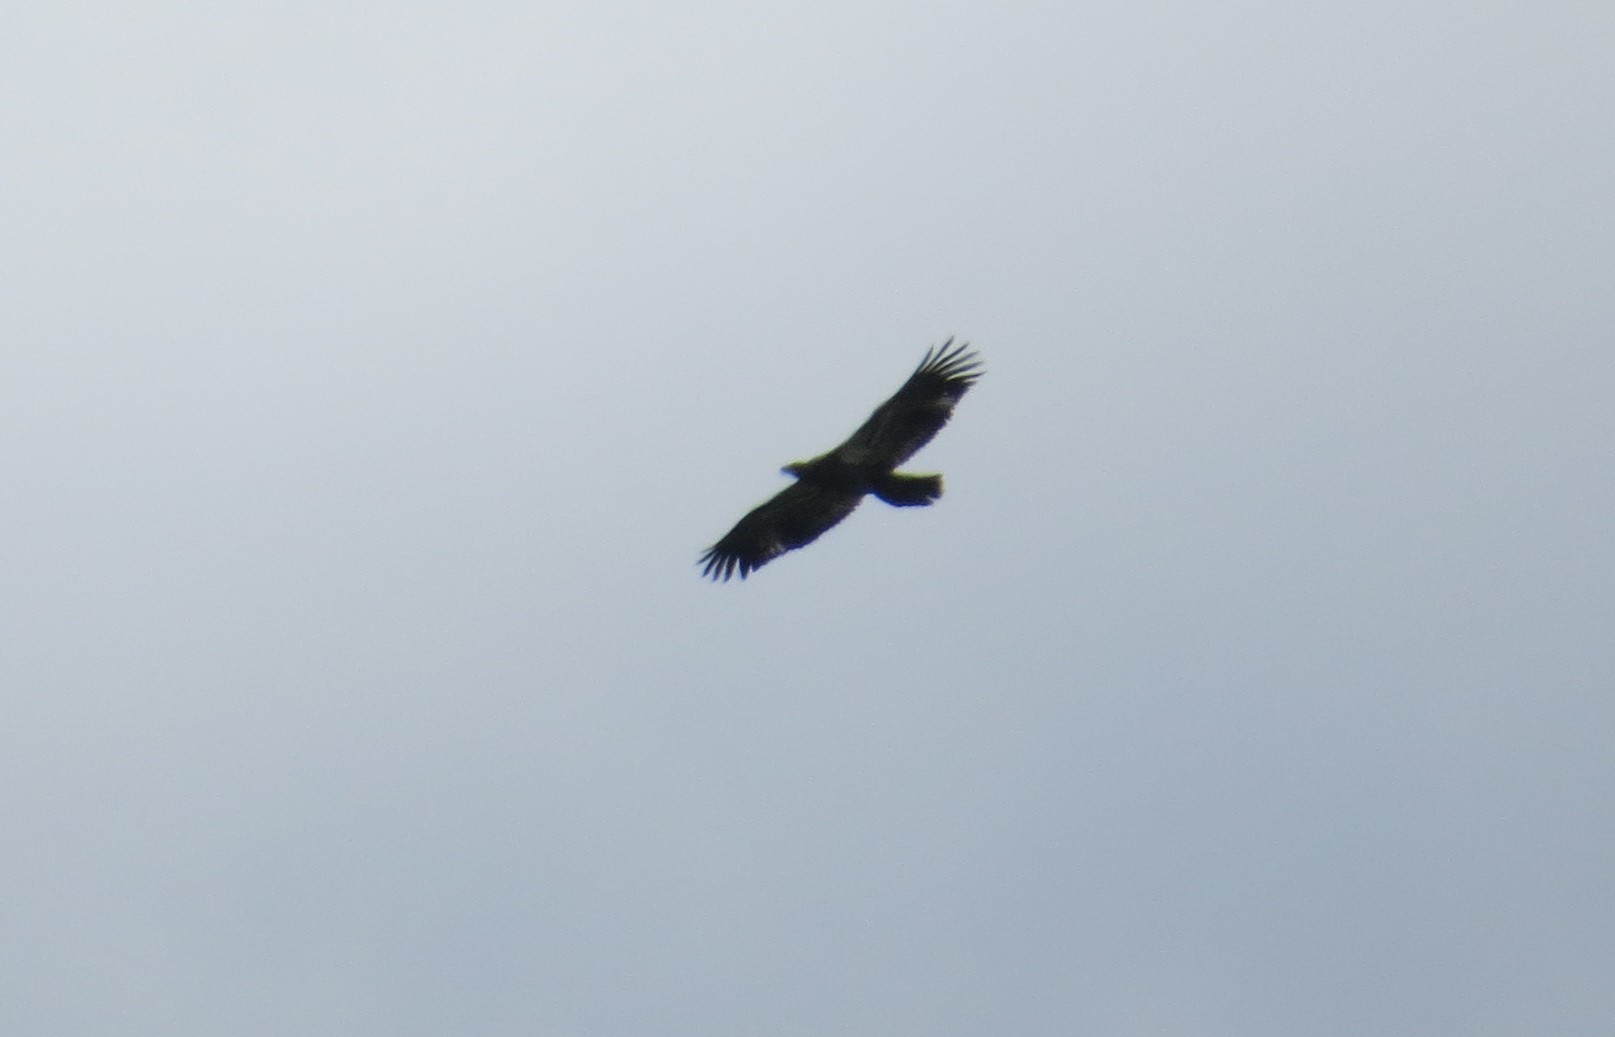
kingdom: Animalia
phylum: Chordata
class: Aves
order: Accipitriformes
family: Accipitridae
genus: Haliaeetus
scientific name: Haliaeetus leucocephalus
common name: Bald eagle
